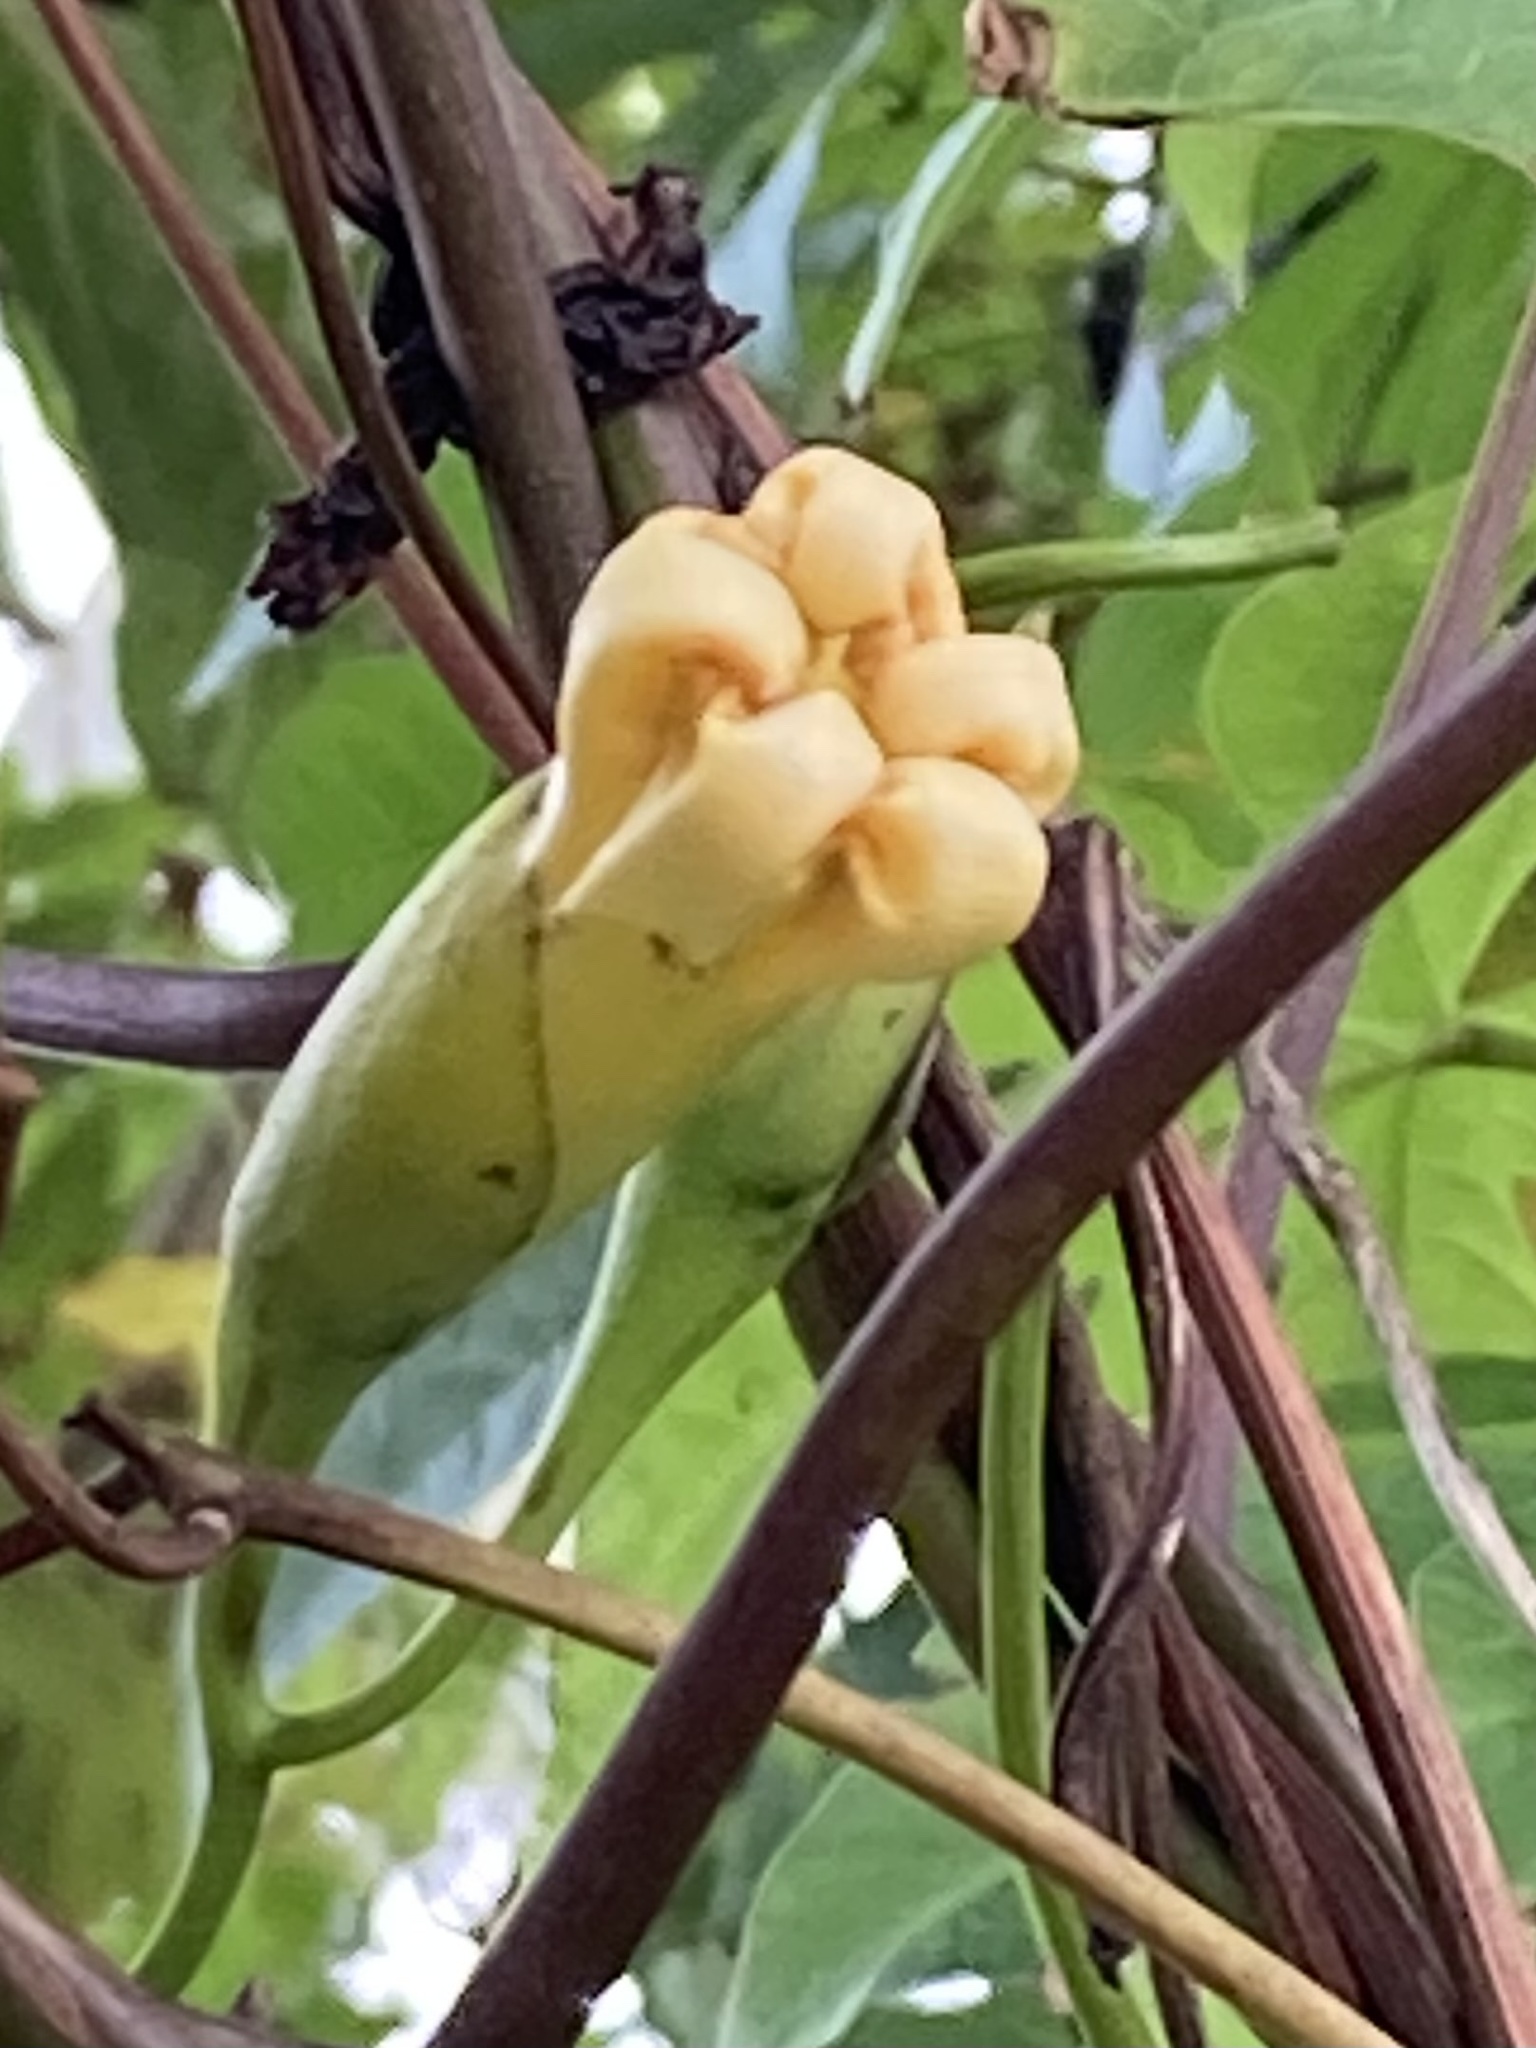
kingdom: Plantae
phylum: Tracheophyta
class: Magnoliopsida
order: Solanales
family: Convolvulaceae
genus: Distimake
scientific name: Distimake tuberosus
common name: Spanish arborvine
